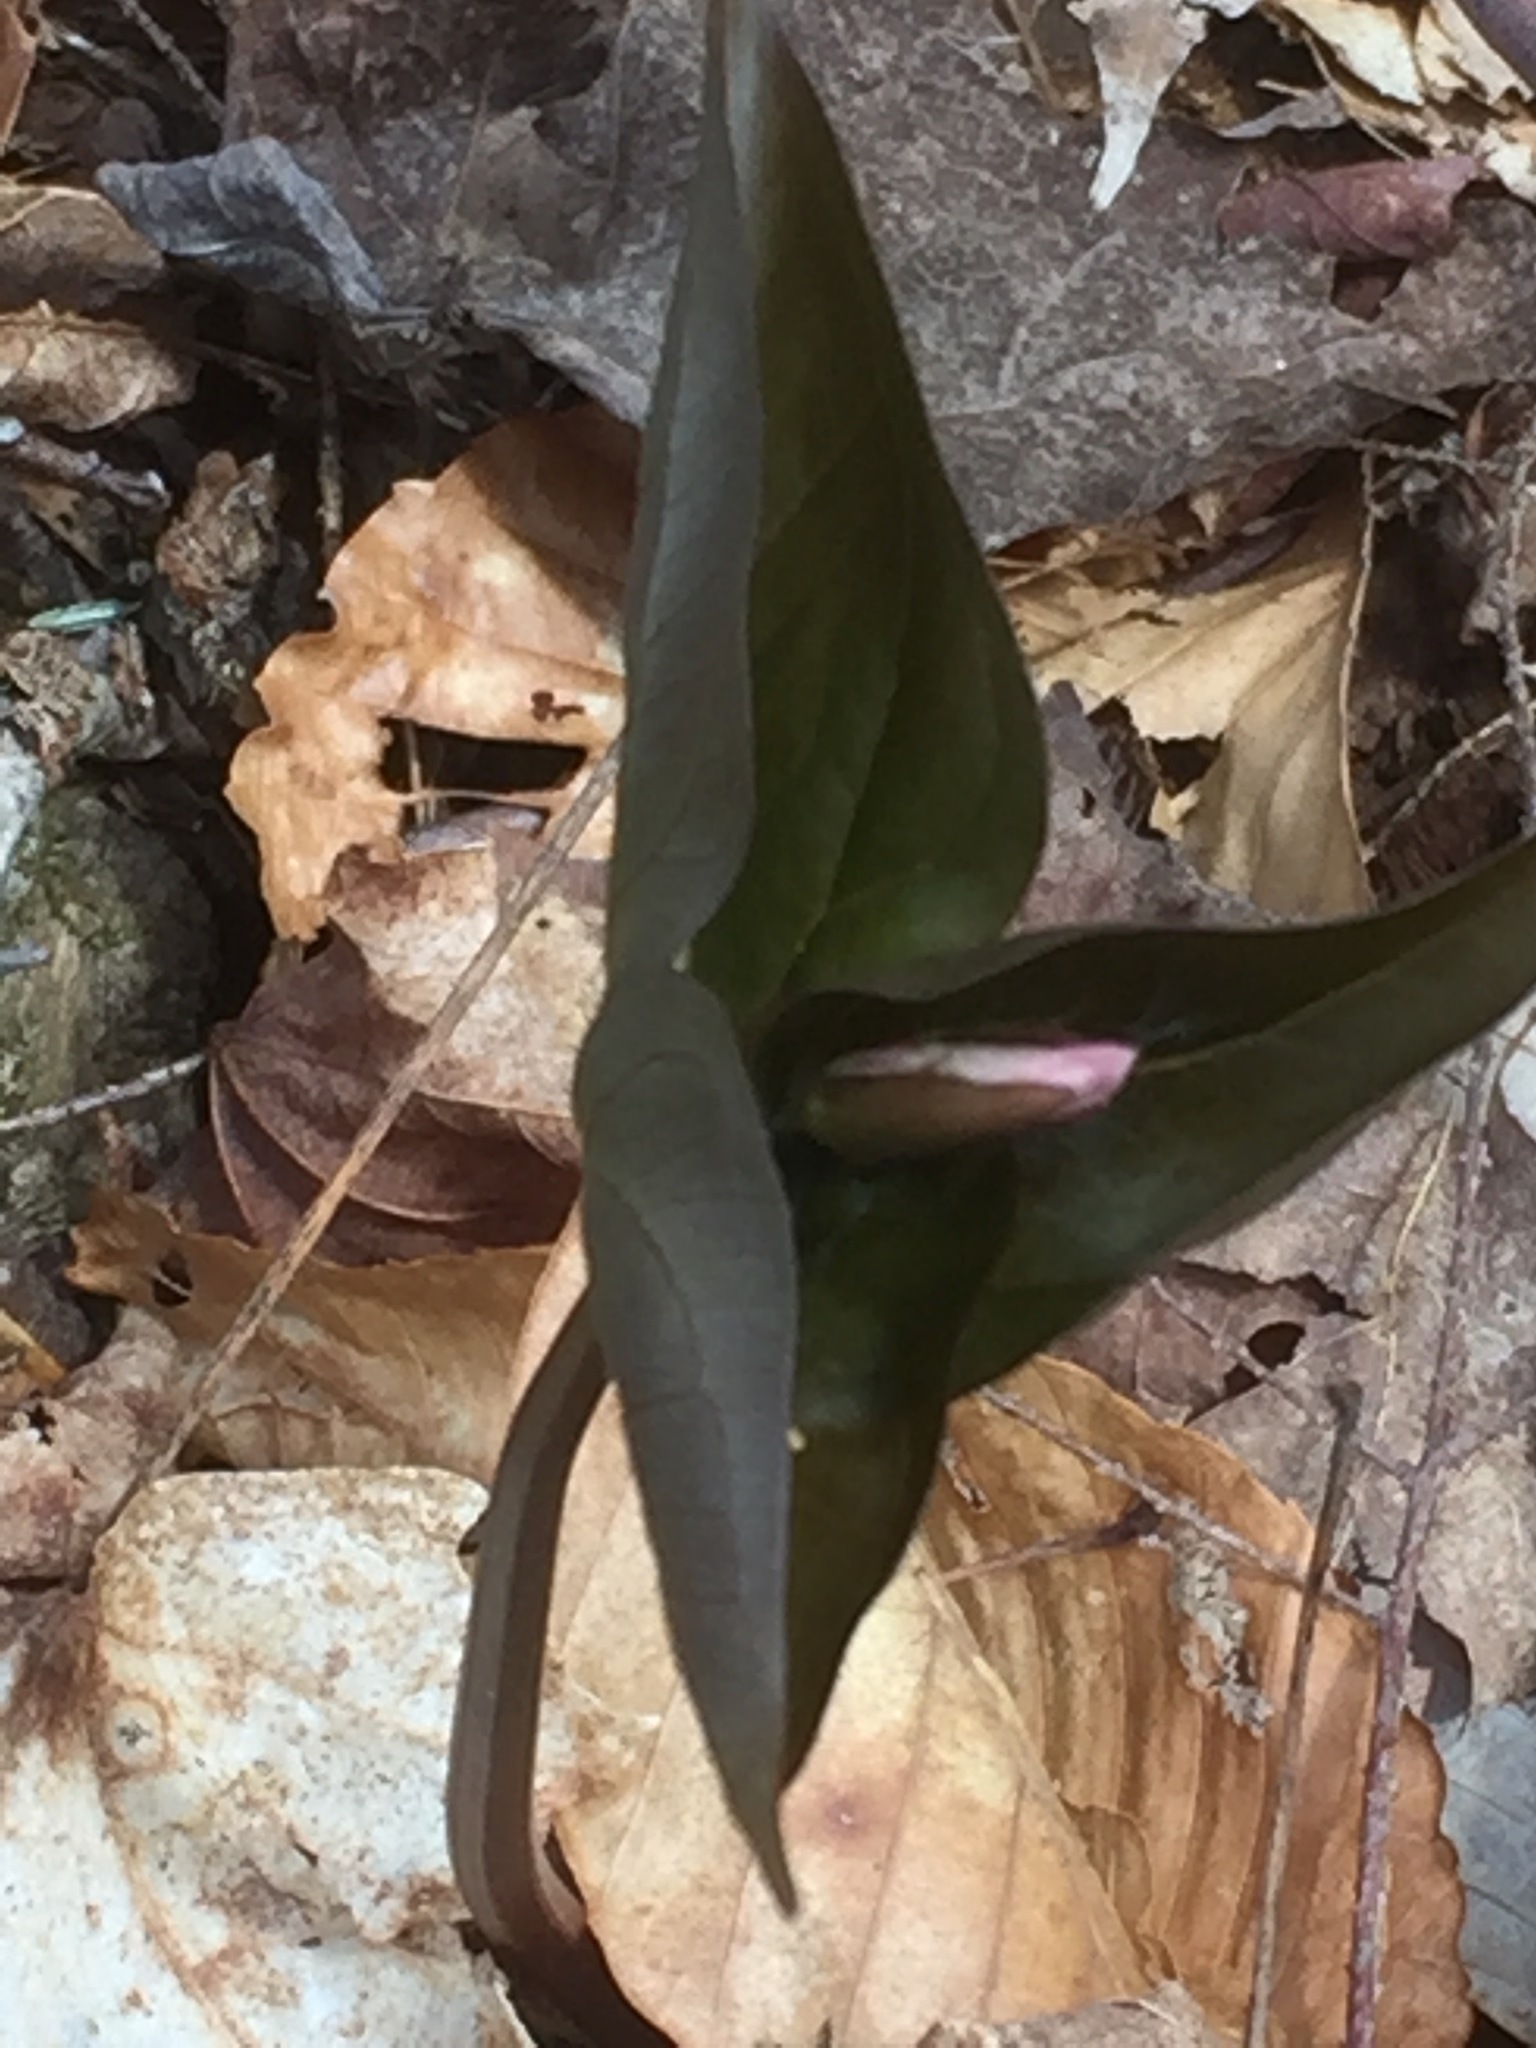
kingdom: Plantae
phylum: Tracheophyta
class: Liliopsida
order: Liliales
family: Melanthiaceae
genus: Trillium
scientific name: Trillium undulatum
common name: Paint trillium
